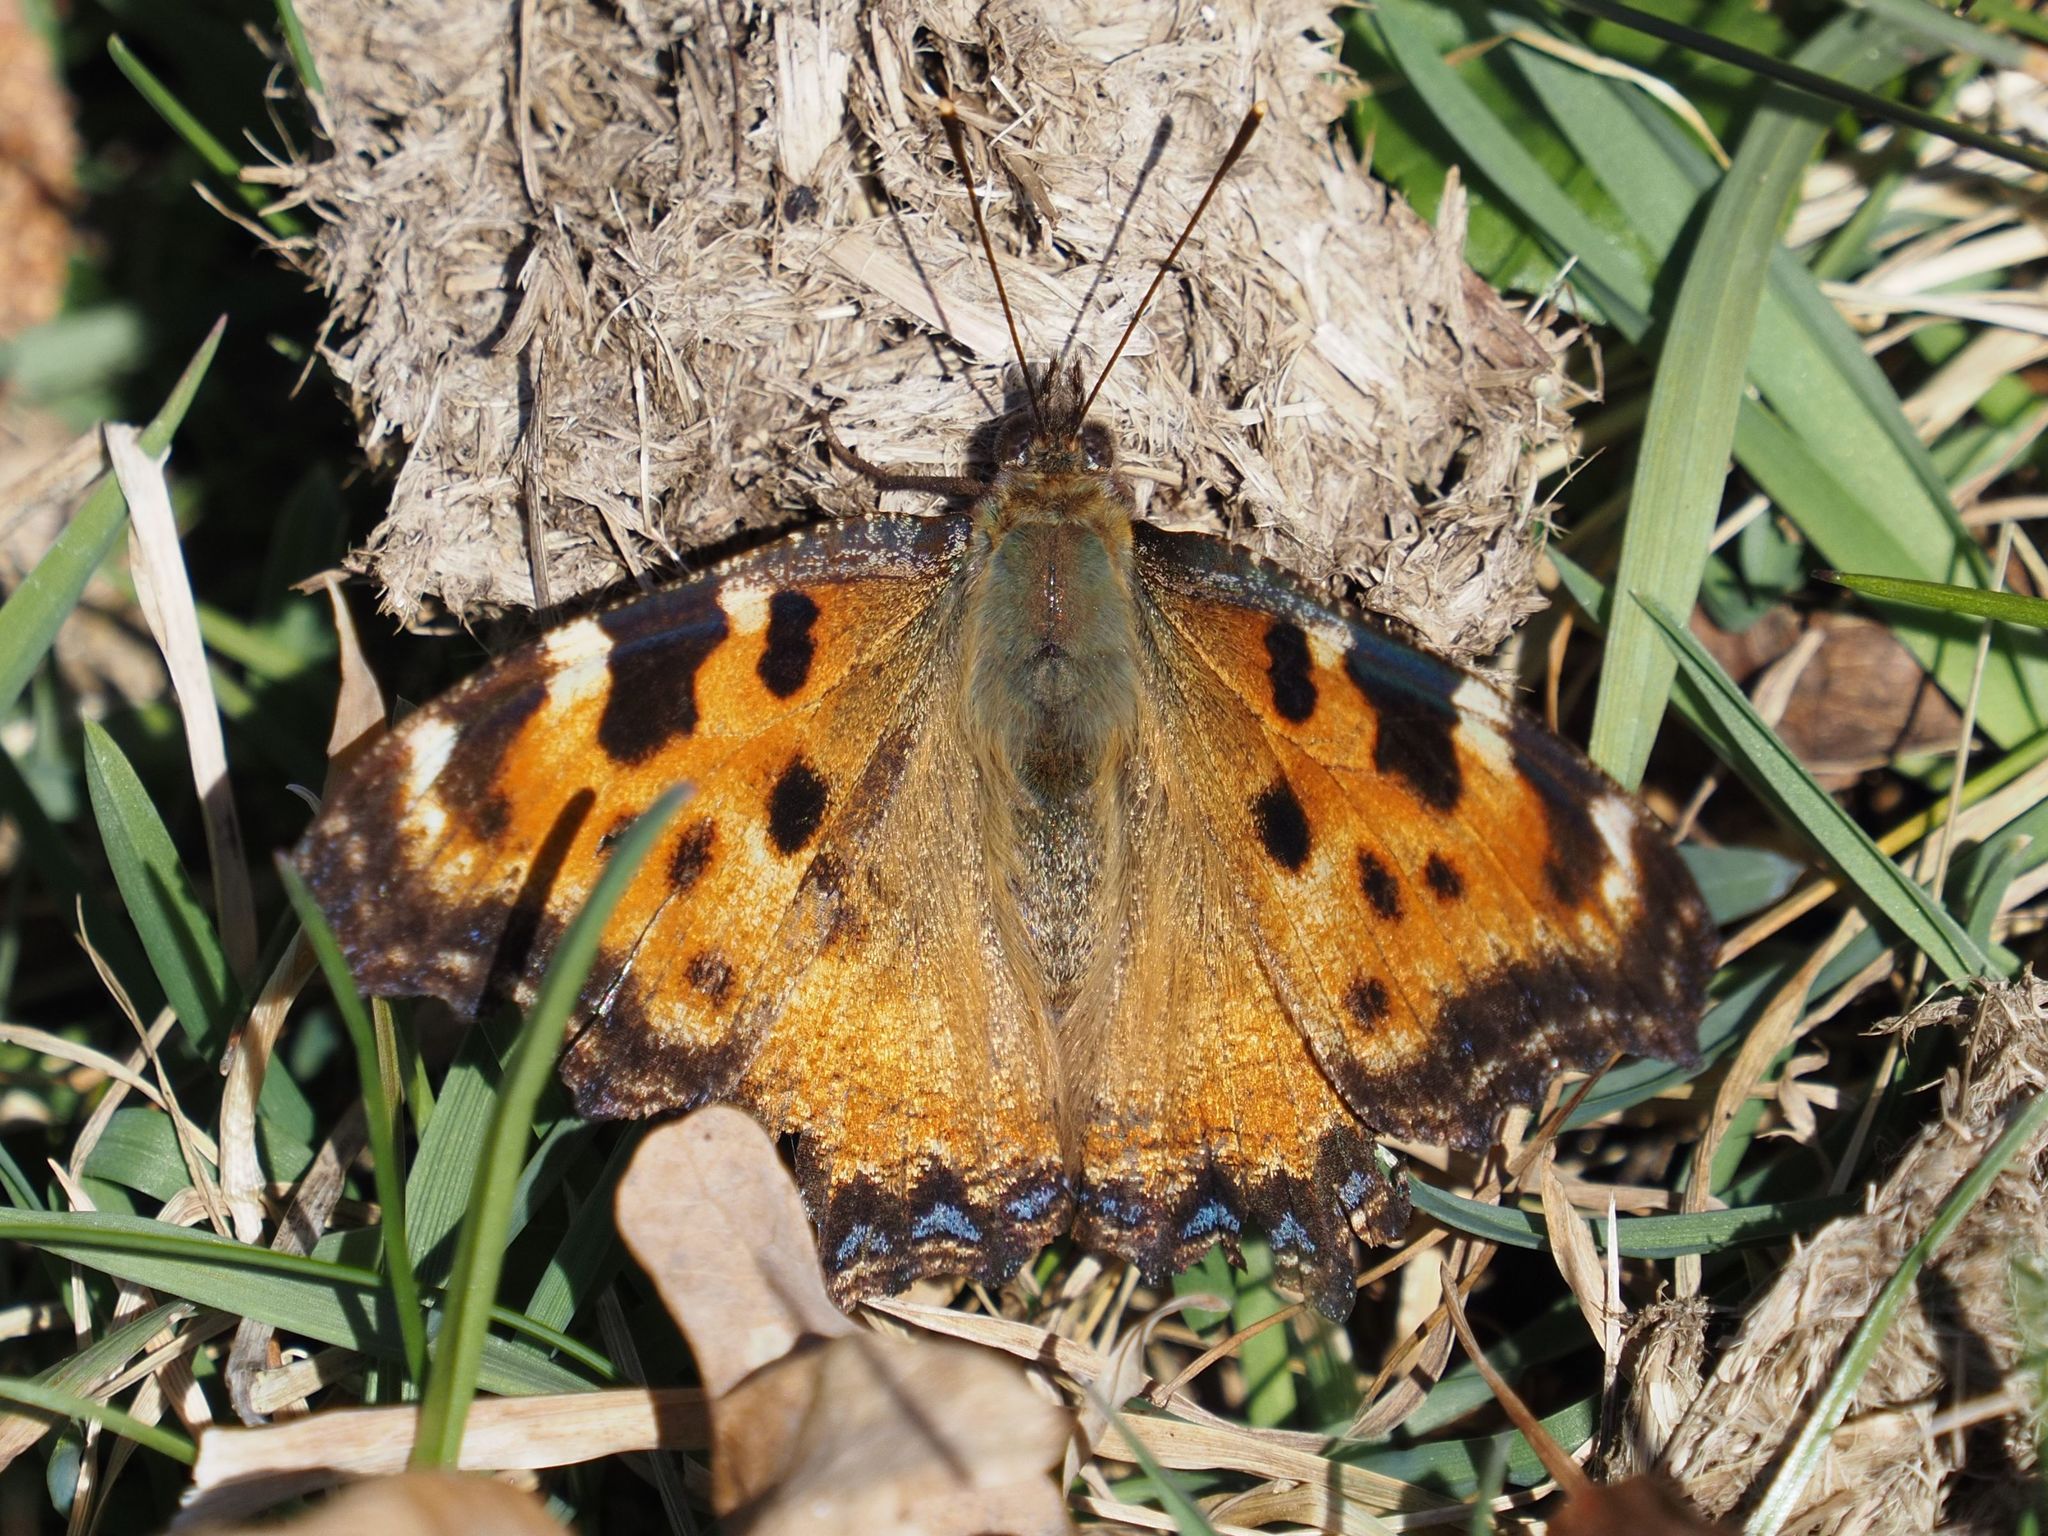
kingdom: Animalia
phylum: Arthropoda
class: Insecta
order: Lepidoptera
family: Nymphalidae
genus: Nymphalis
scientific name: Nymphalis polychloros
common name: Large tortoiseshell
